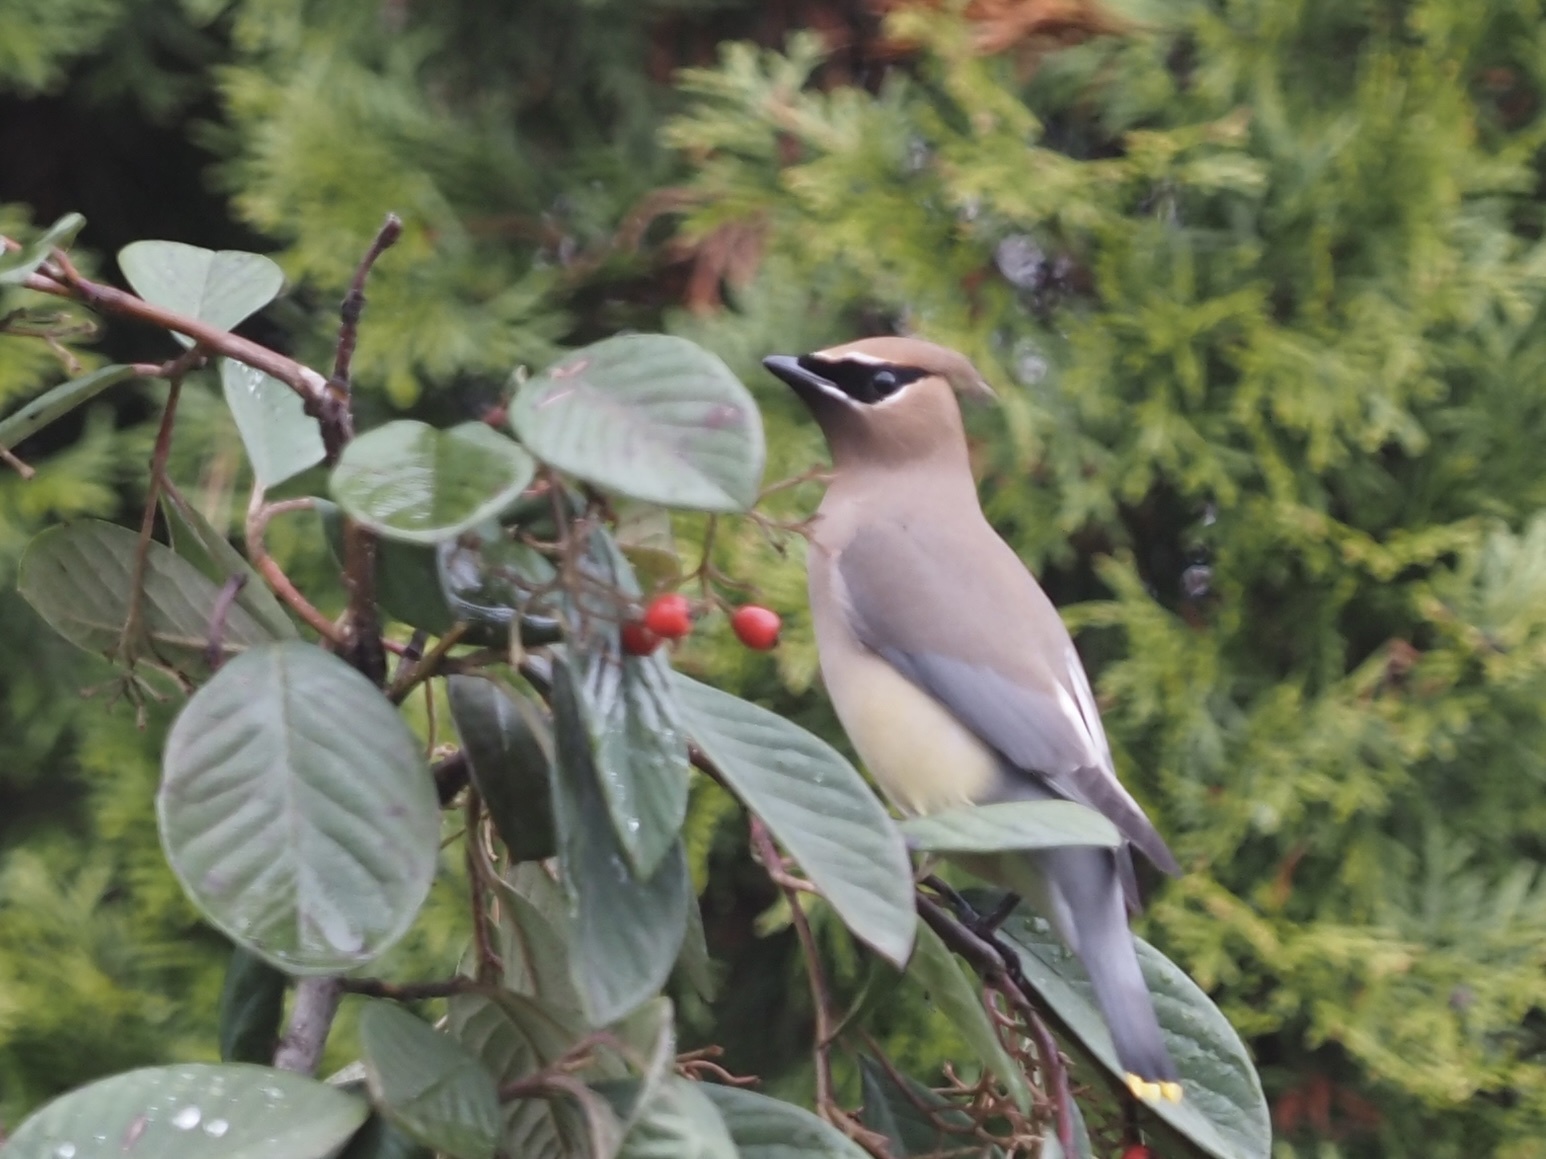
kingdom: Animalia
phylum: Chordata
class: Aves
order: Passeriformes
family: Bombycillidae
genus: Bombycilla
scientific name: Bombycilla cedrorum
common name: Cedar waxwing
